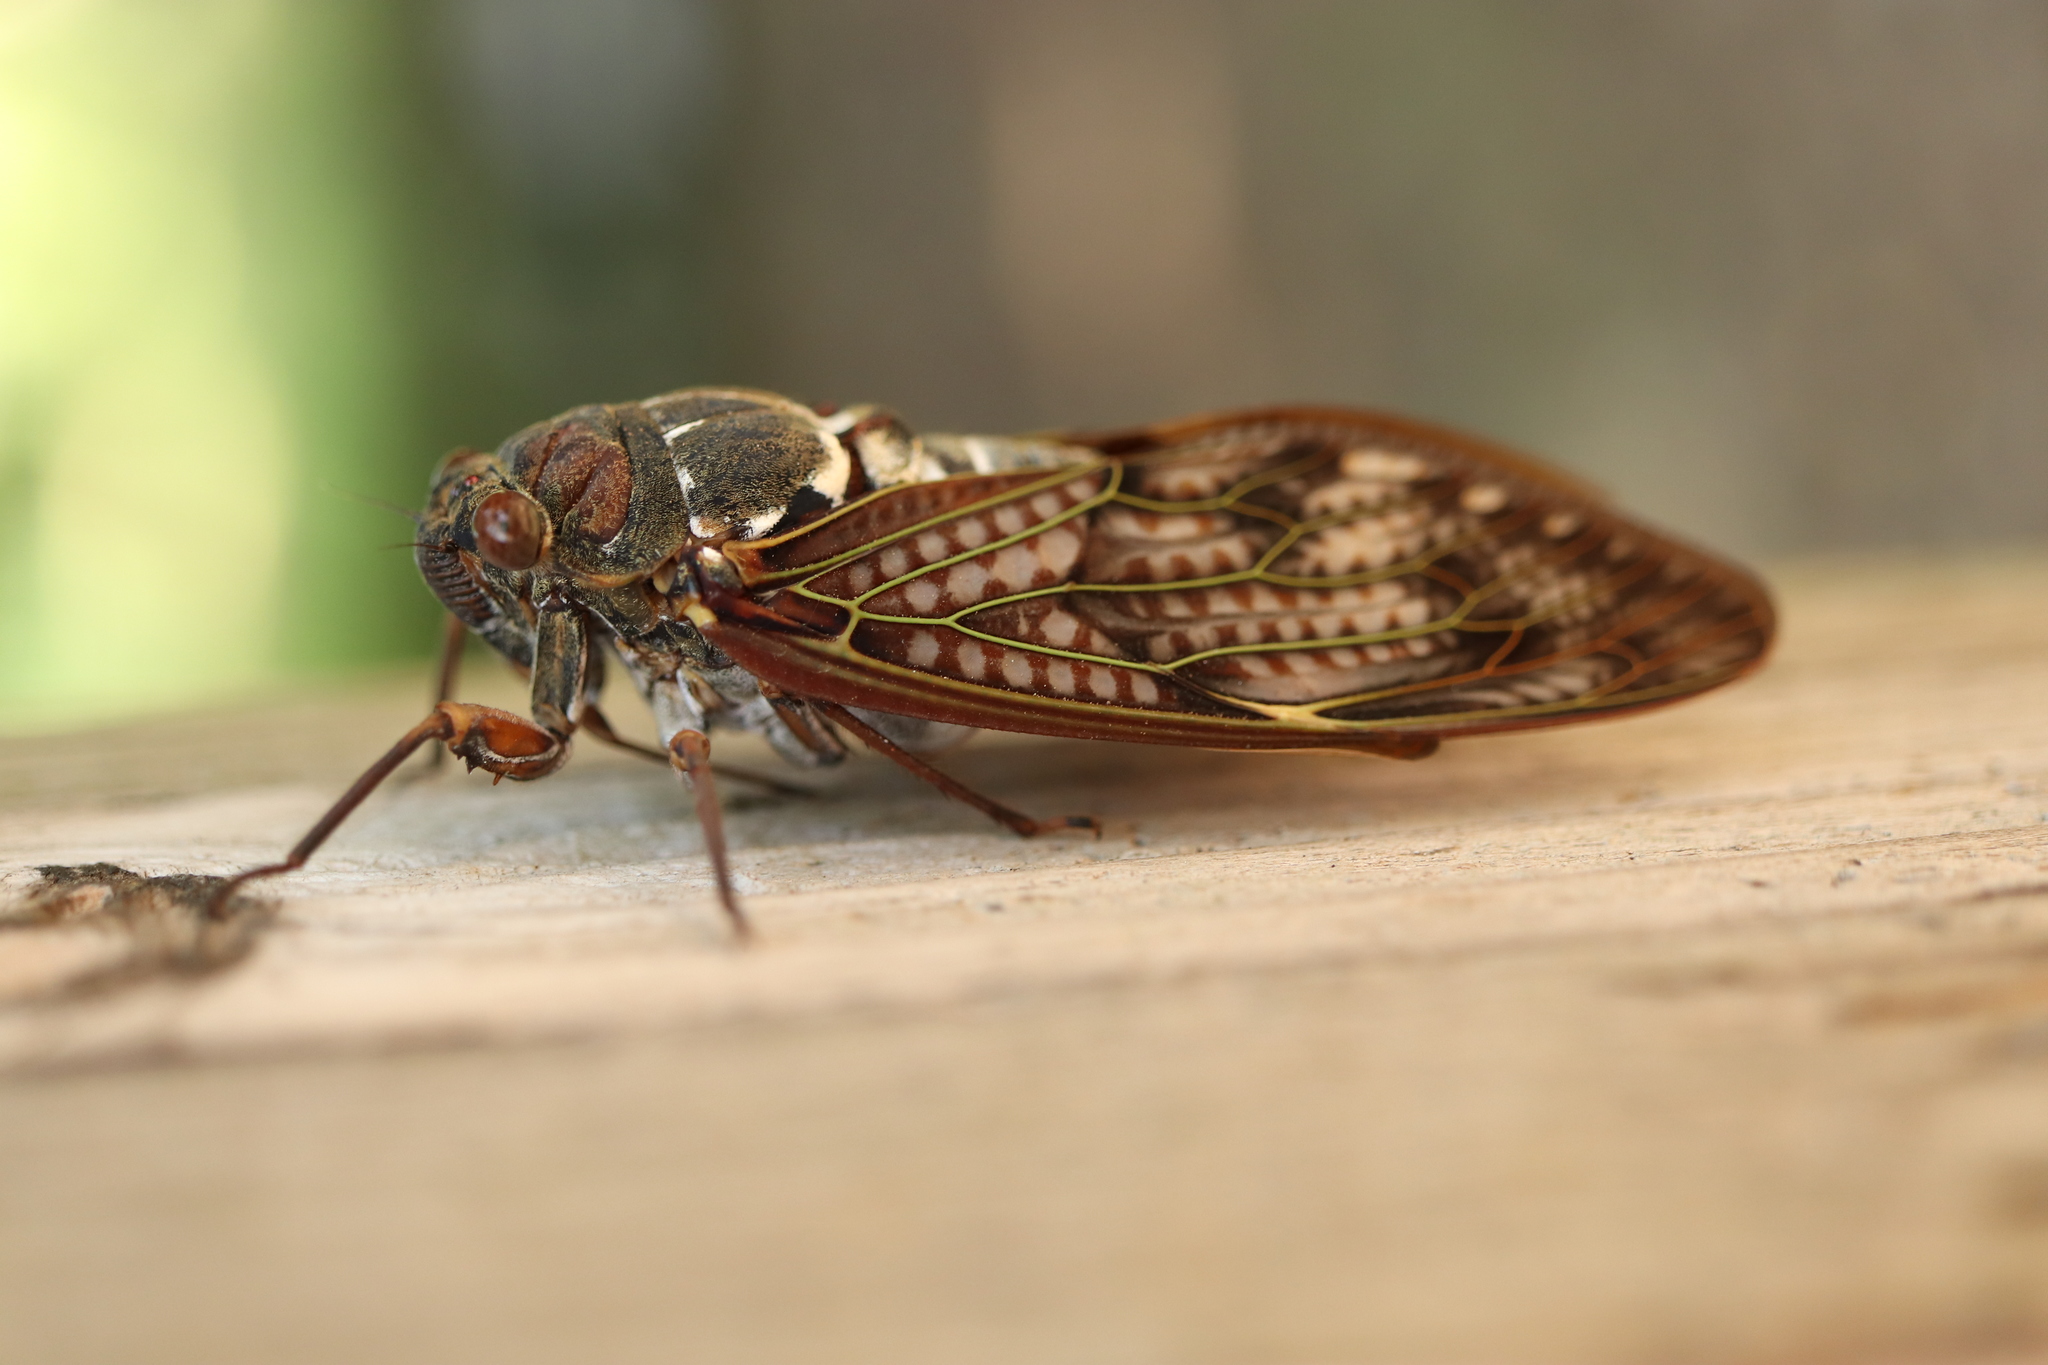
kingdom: Animalia
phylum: Arthropoda
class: Insecta
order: Hemiptera
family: Cicadidae
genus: Graptopsaltria
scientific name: Graptopsaltria nigrofuscata
